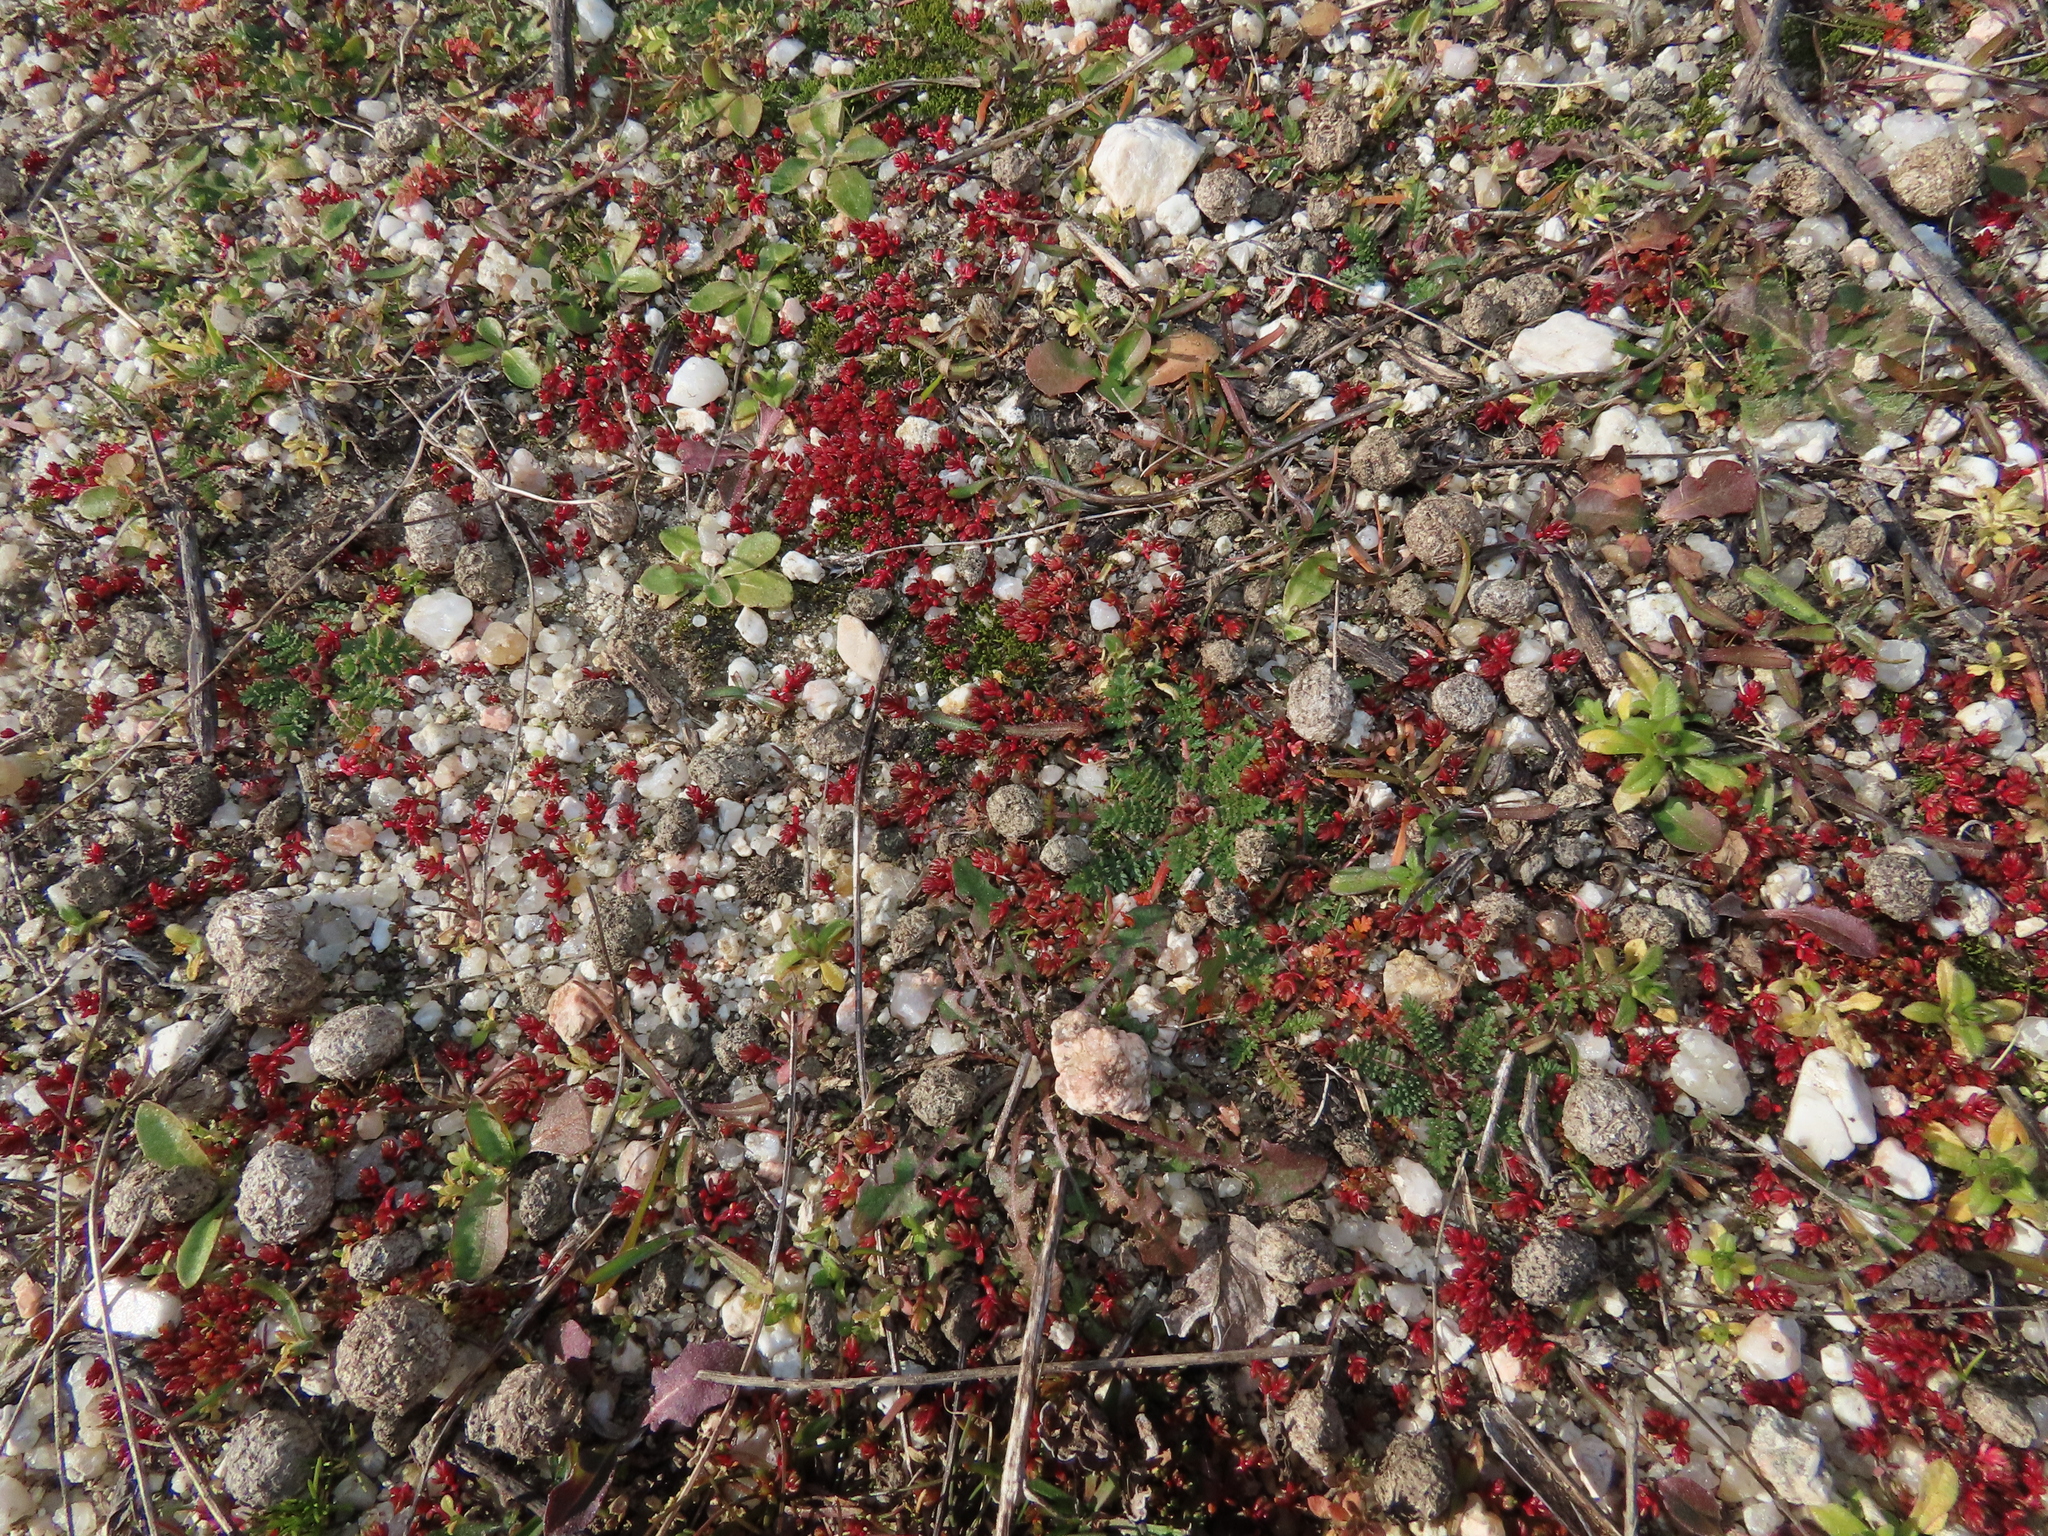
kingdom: Plantae
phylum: Tracheophyta
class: Magnoliopsida
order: Saxifragales
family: Crassulaceae
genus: Crassula
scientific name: Crassula tillaea
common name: Mossy stonecrop
